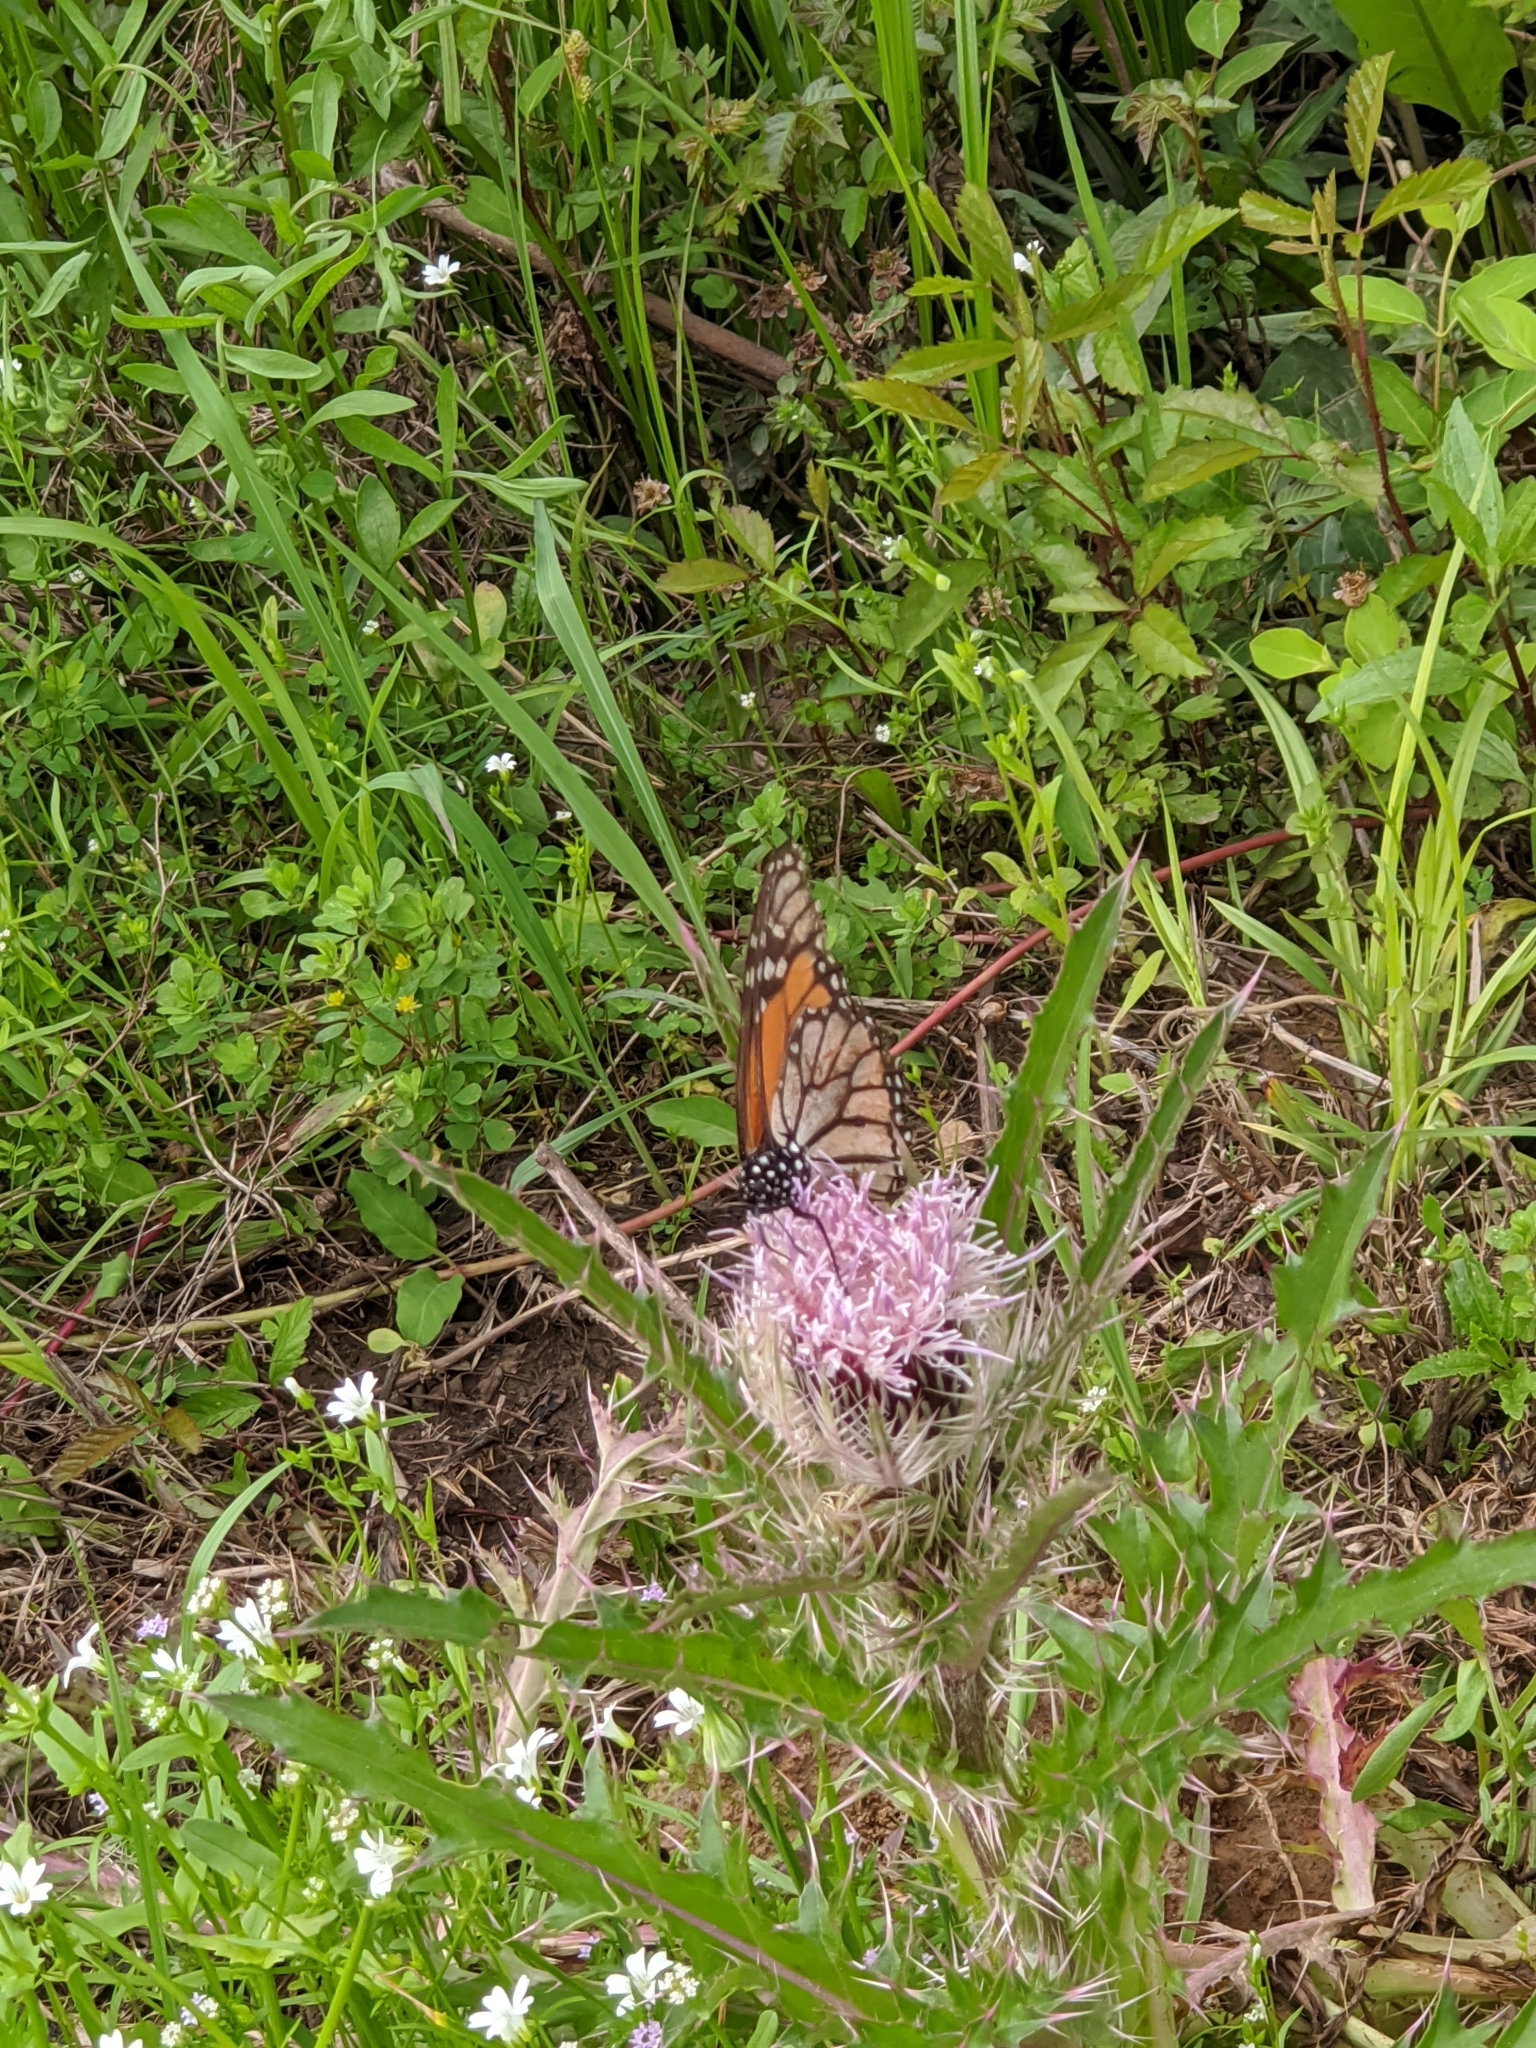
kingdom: Animalia
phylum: Arthropoda
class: Insecta
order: Lepidoptera
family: Nymphalidae
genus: Danaus
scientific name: Danaus plexippus
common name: Monarch
